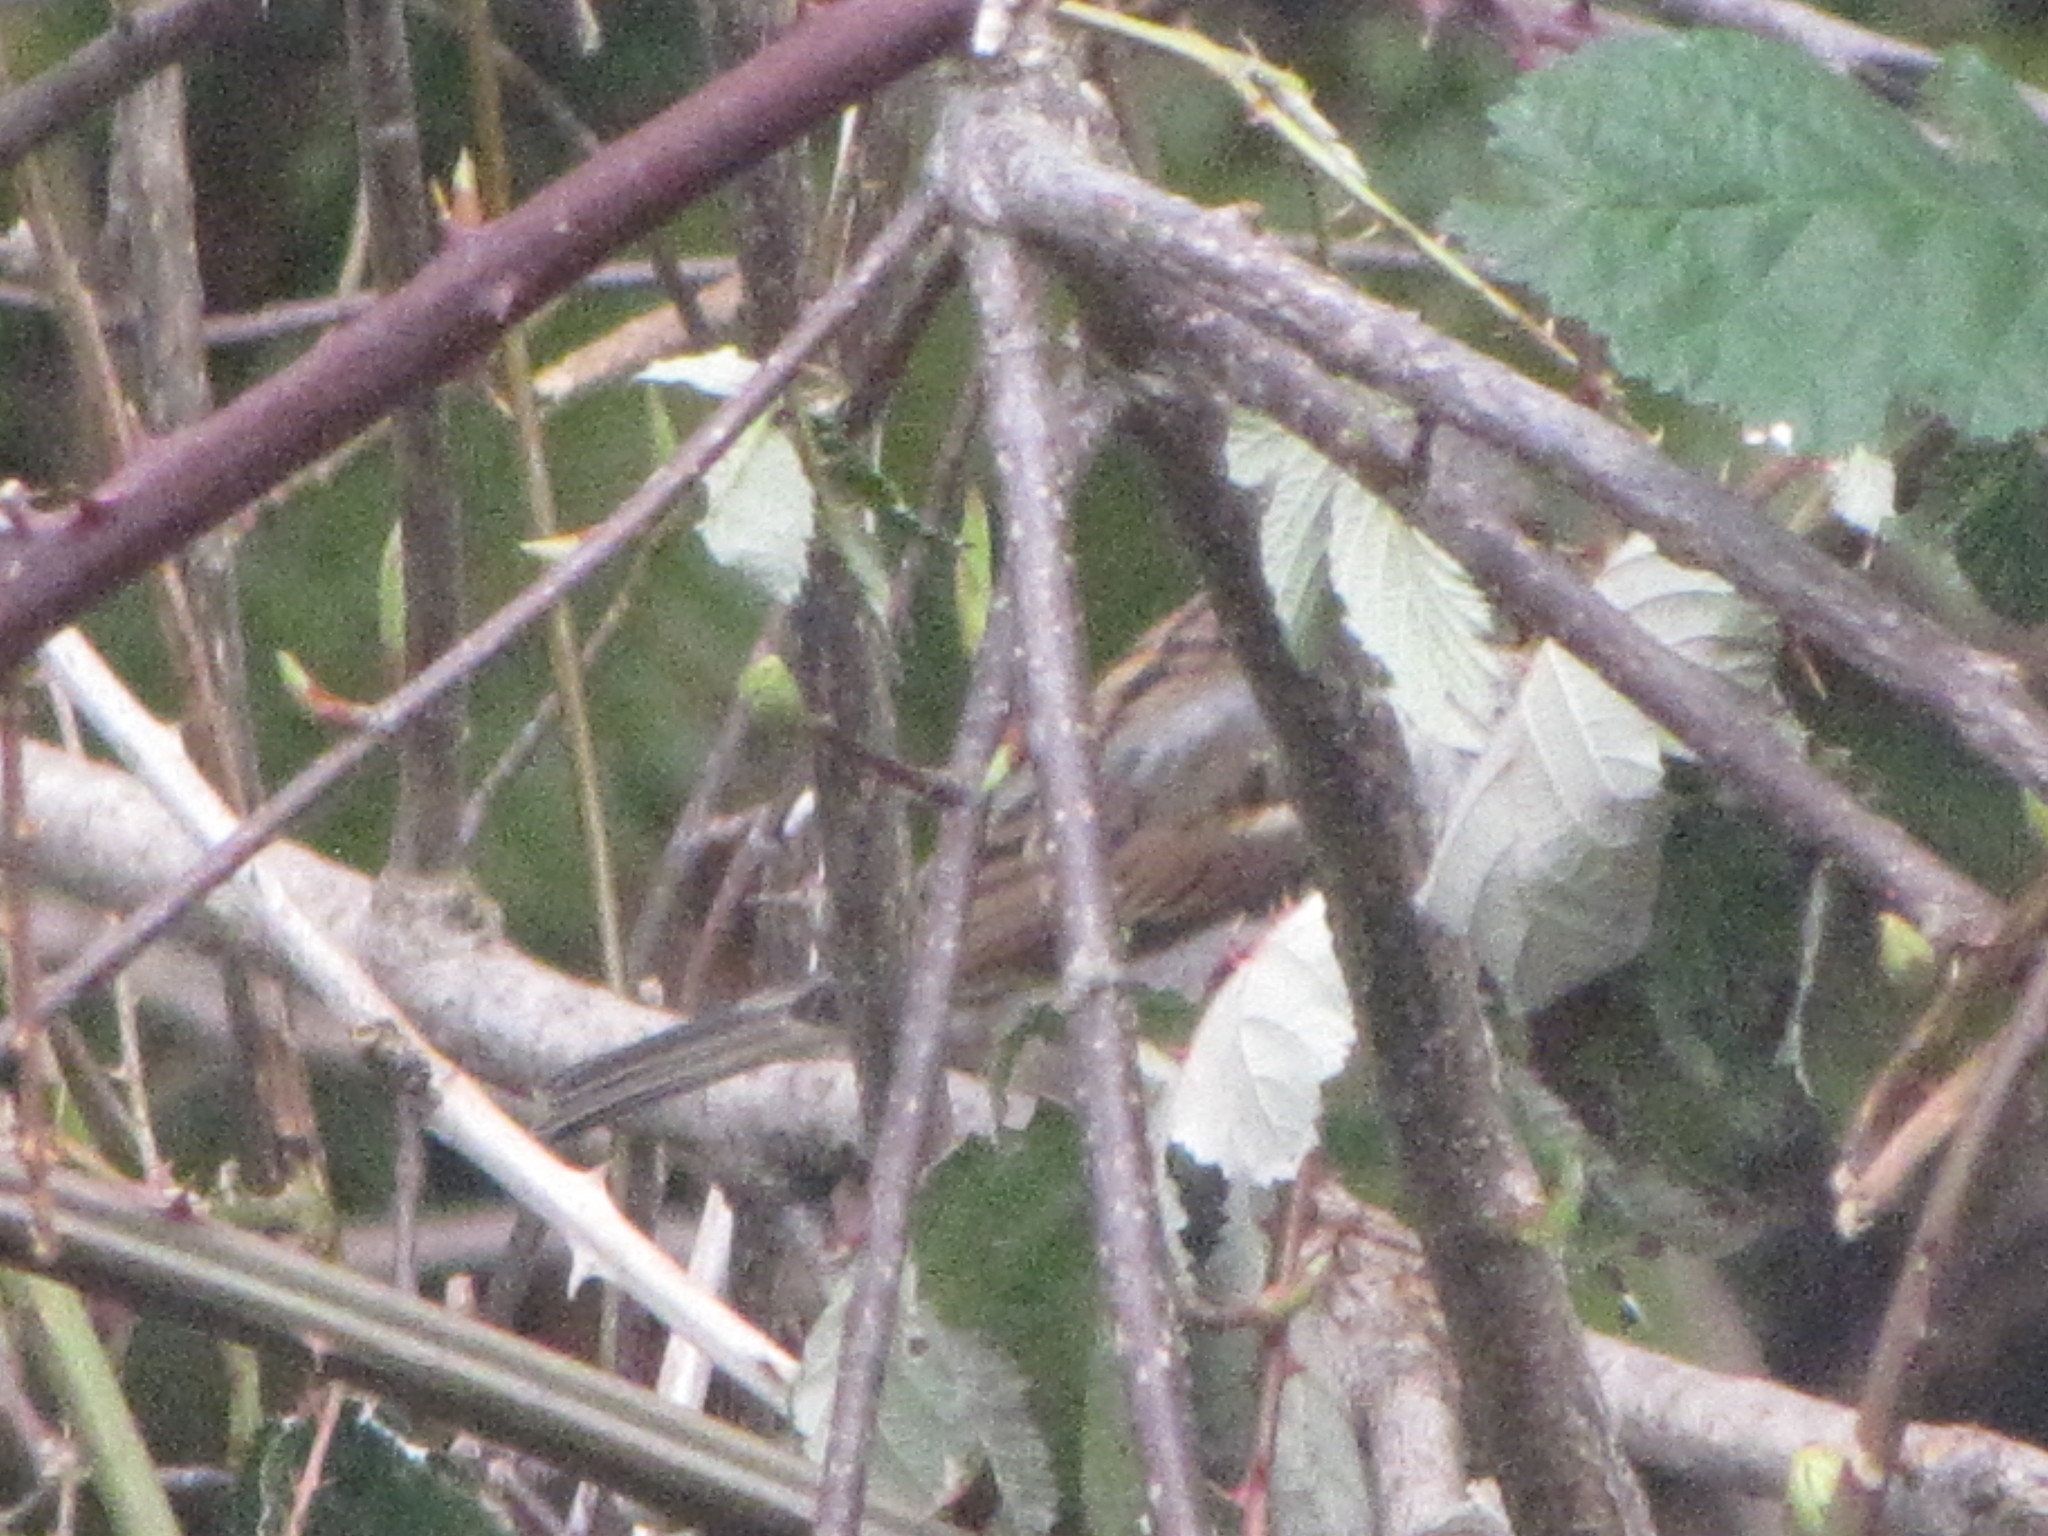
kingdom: Animalia
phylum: Chordata
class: Aves
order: Passeriformes
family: Passeridae
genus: Passer
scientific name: Passer domesticus
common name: House sparrow
